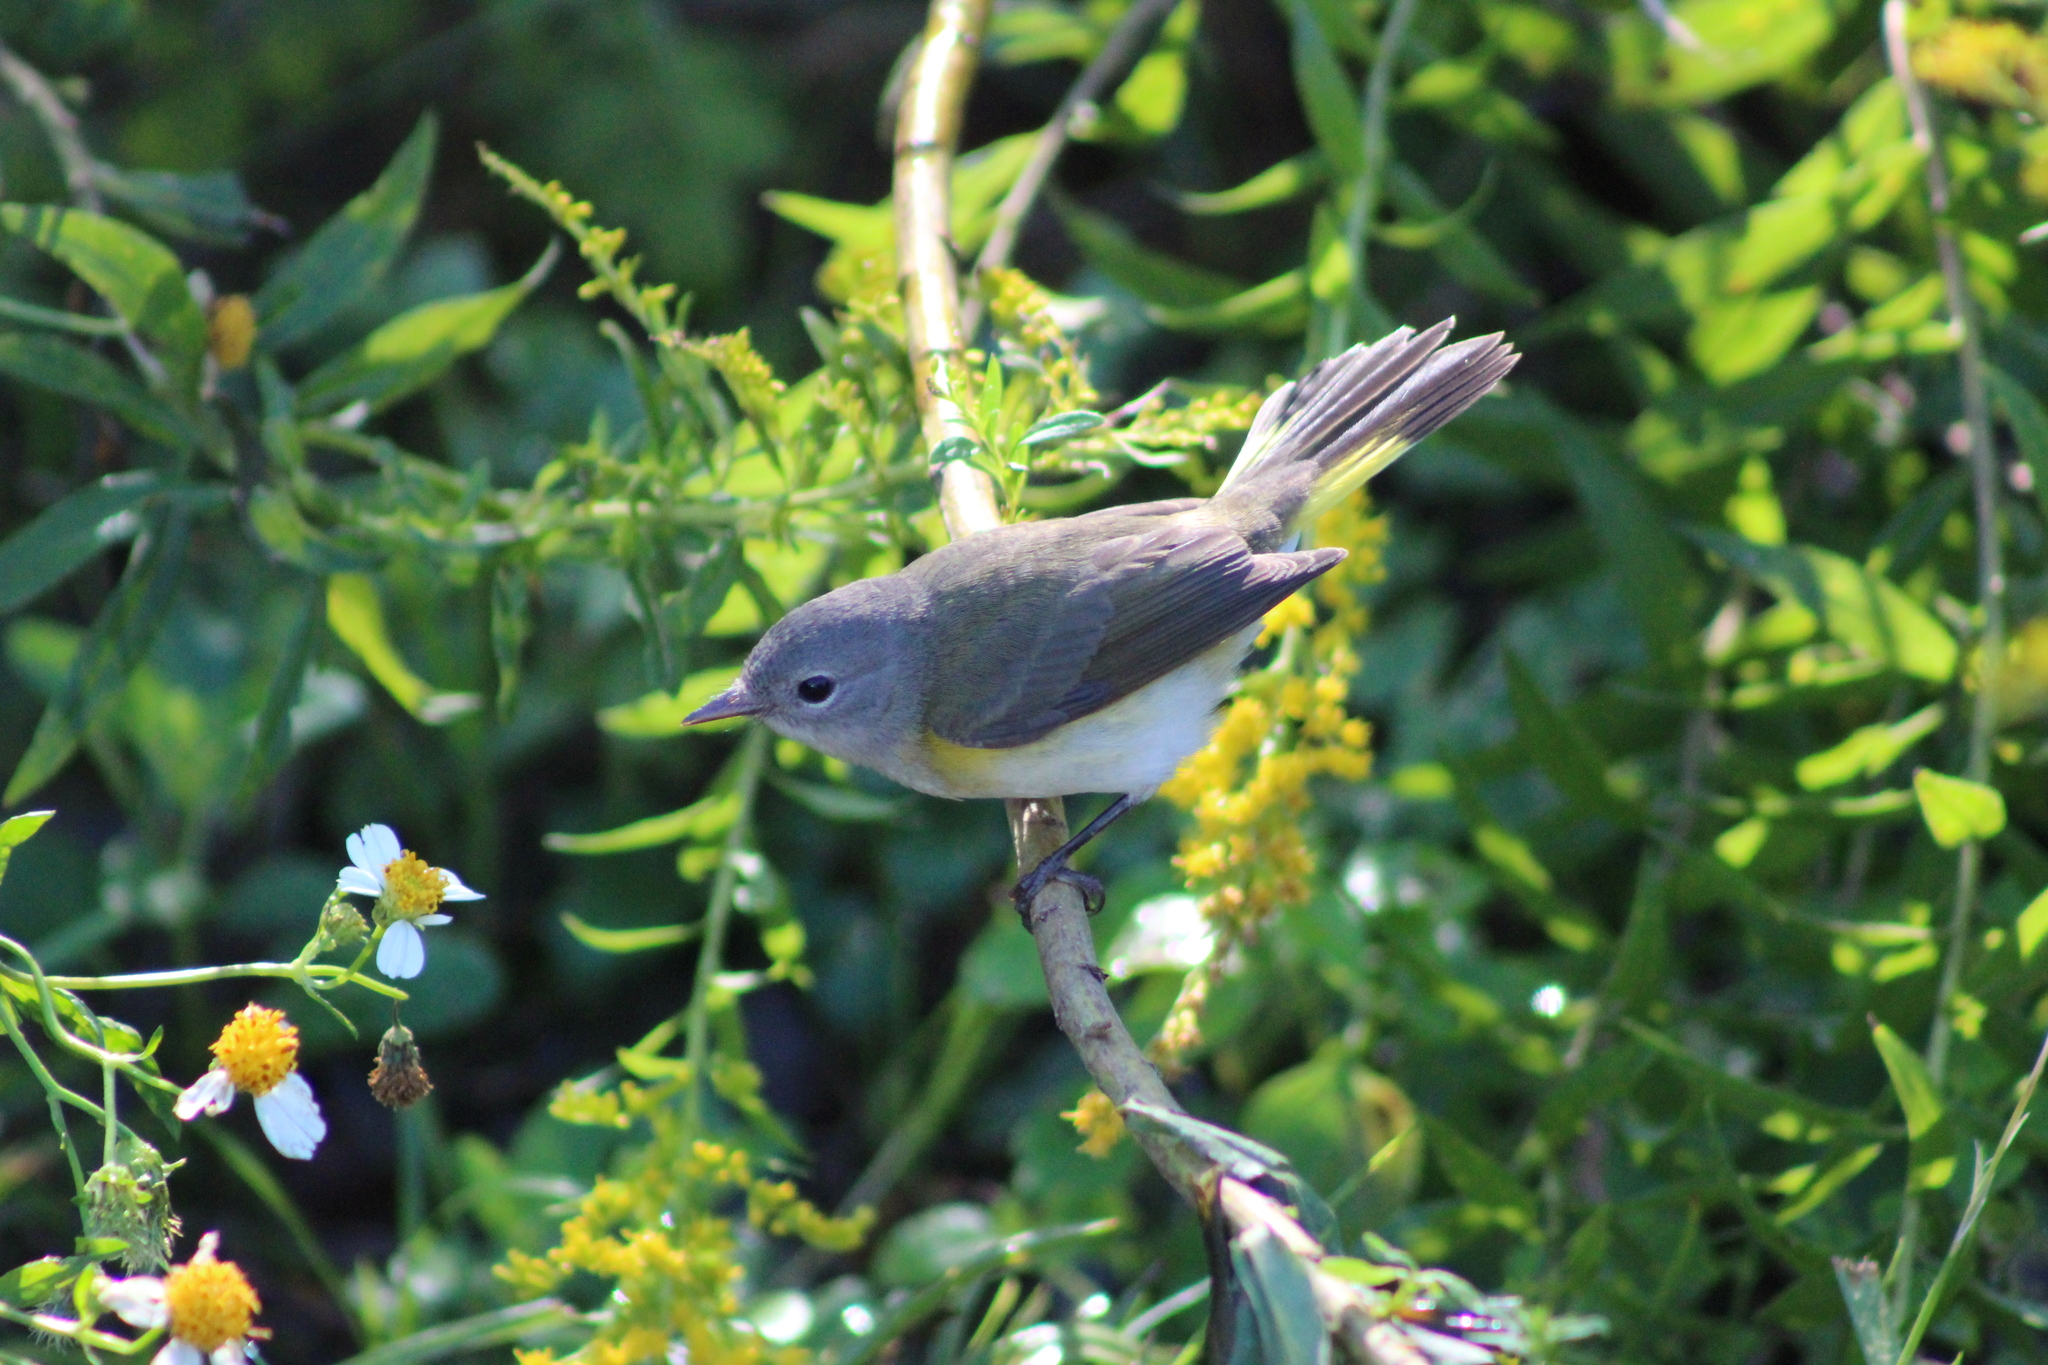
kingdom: Animalia
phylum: Chordata
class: Aves
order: Passeriformes
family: Parulidae
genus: Setophaga
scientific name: Setophaga ruticilla
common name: American redstart
